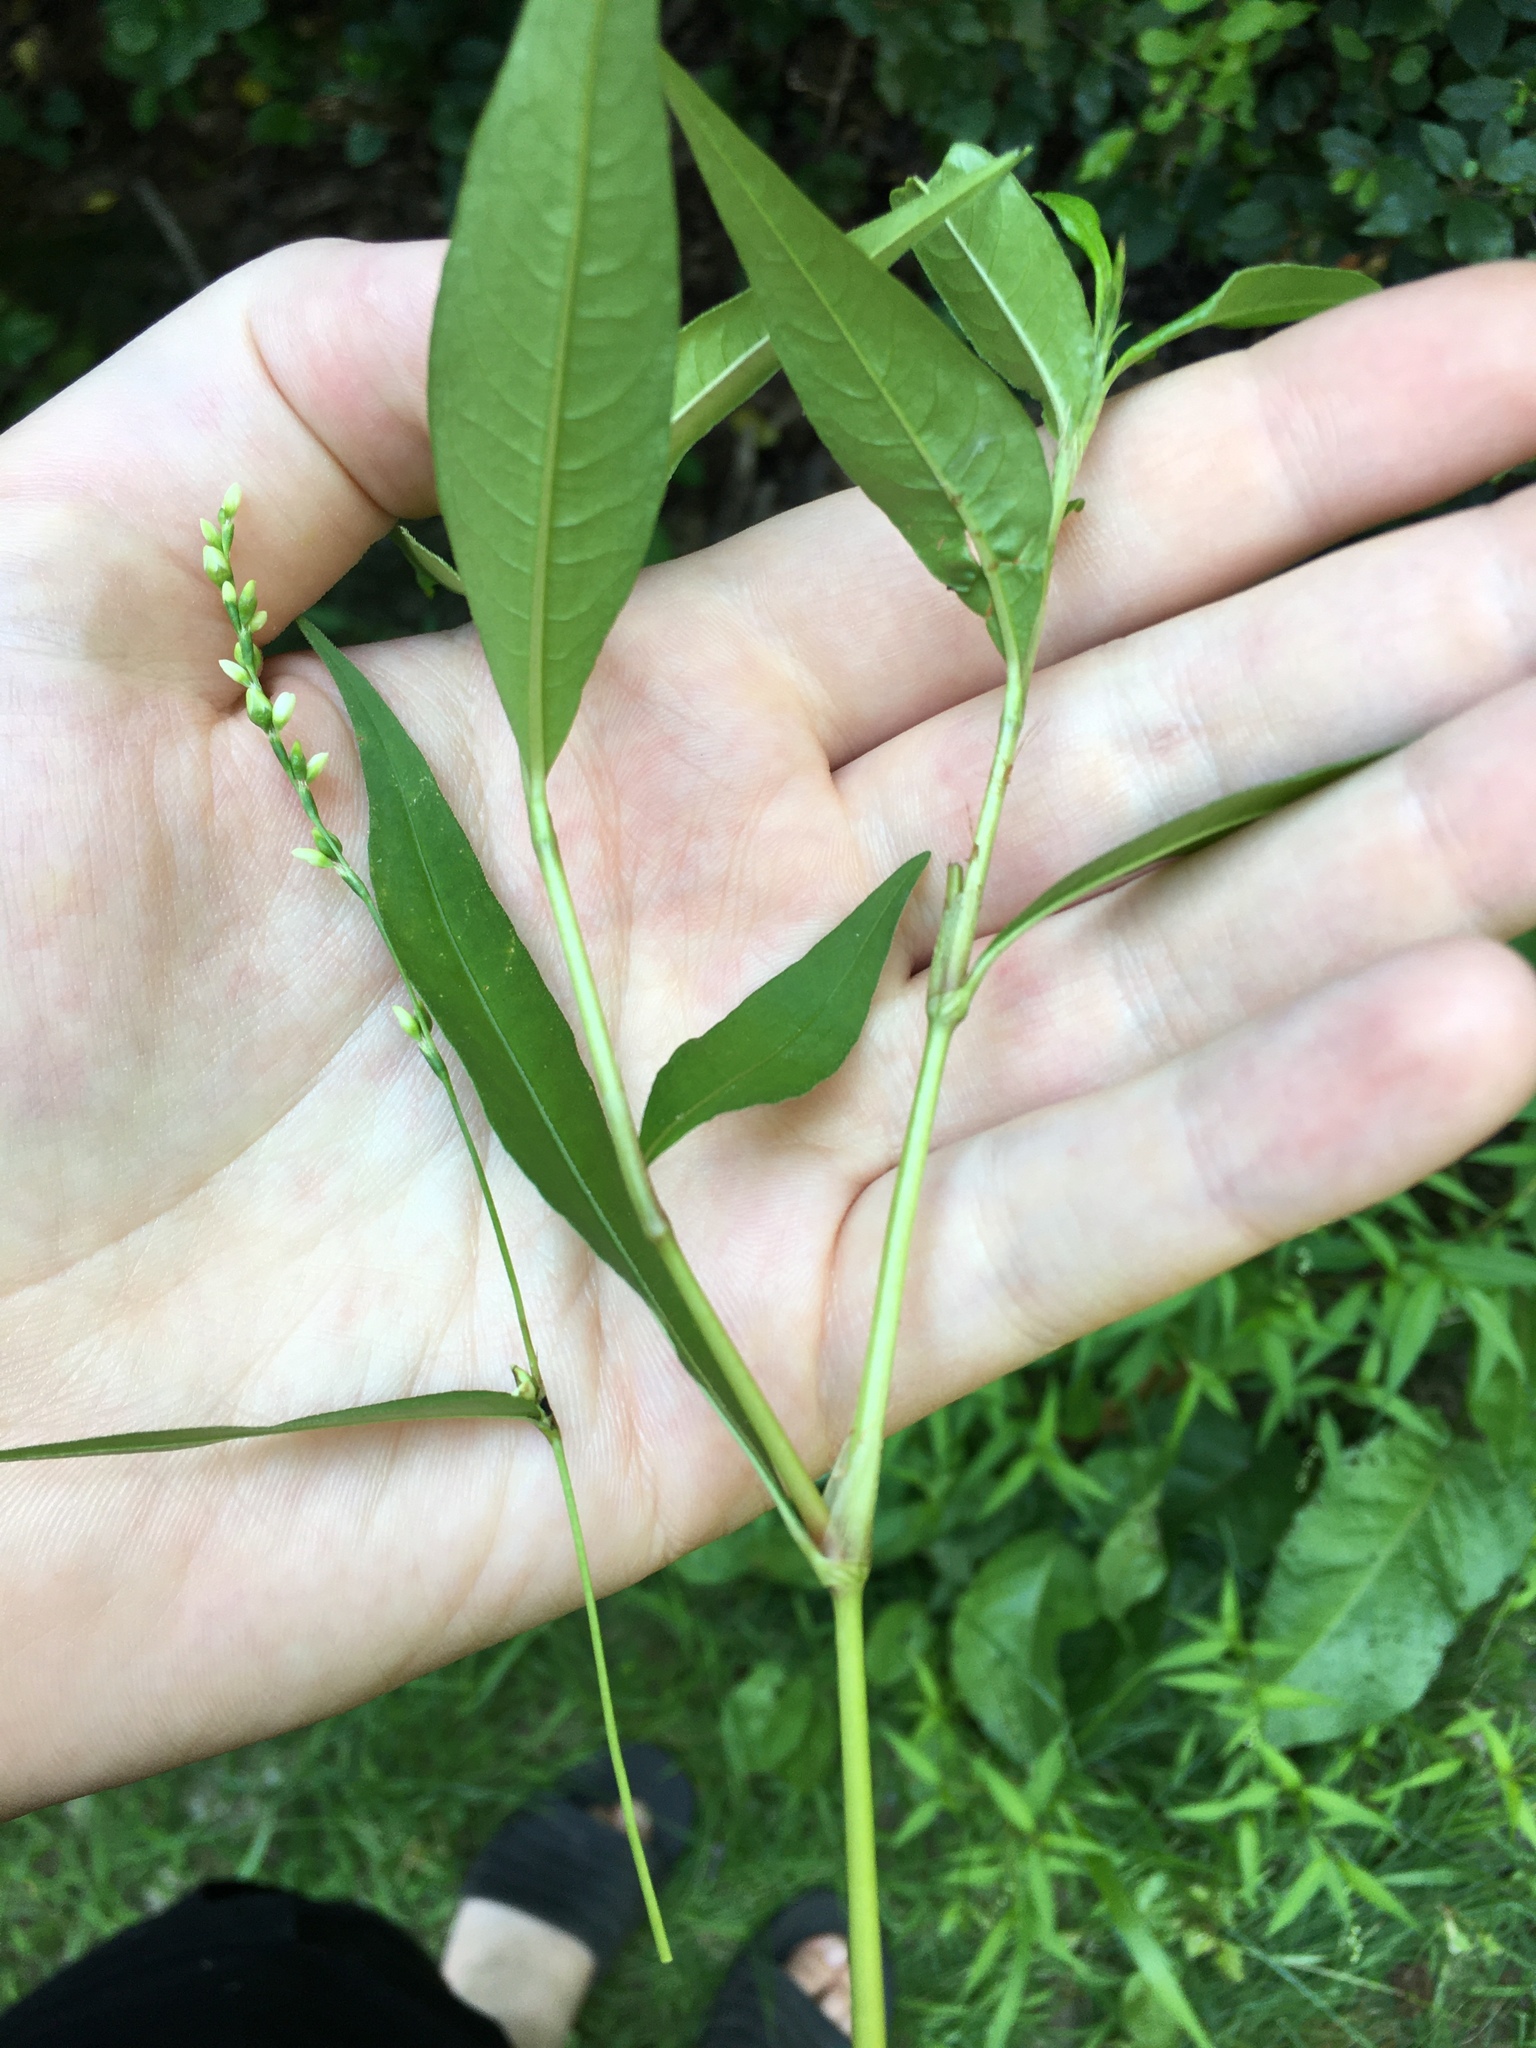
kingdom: Plantae
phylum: Tracheophyta
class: Magnoliopsida
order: Caryophyllales
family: Polygonaceae
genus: Persicaria
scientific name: Persicaria punctata
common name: Dotted smartweed
